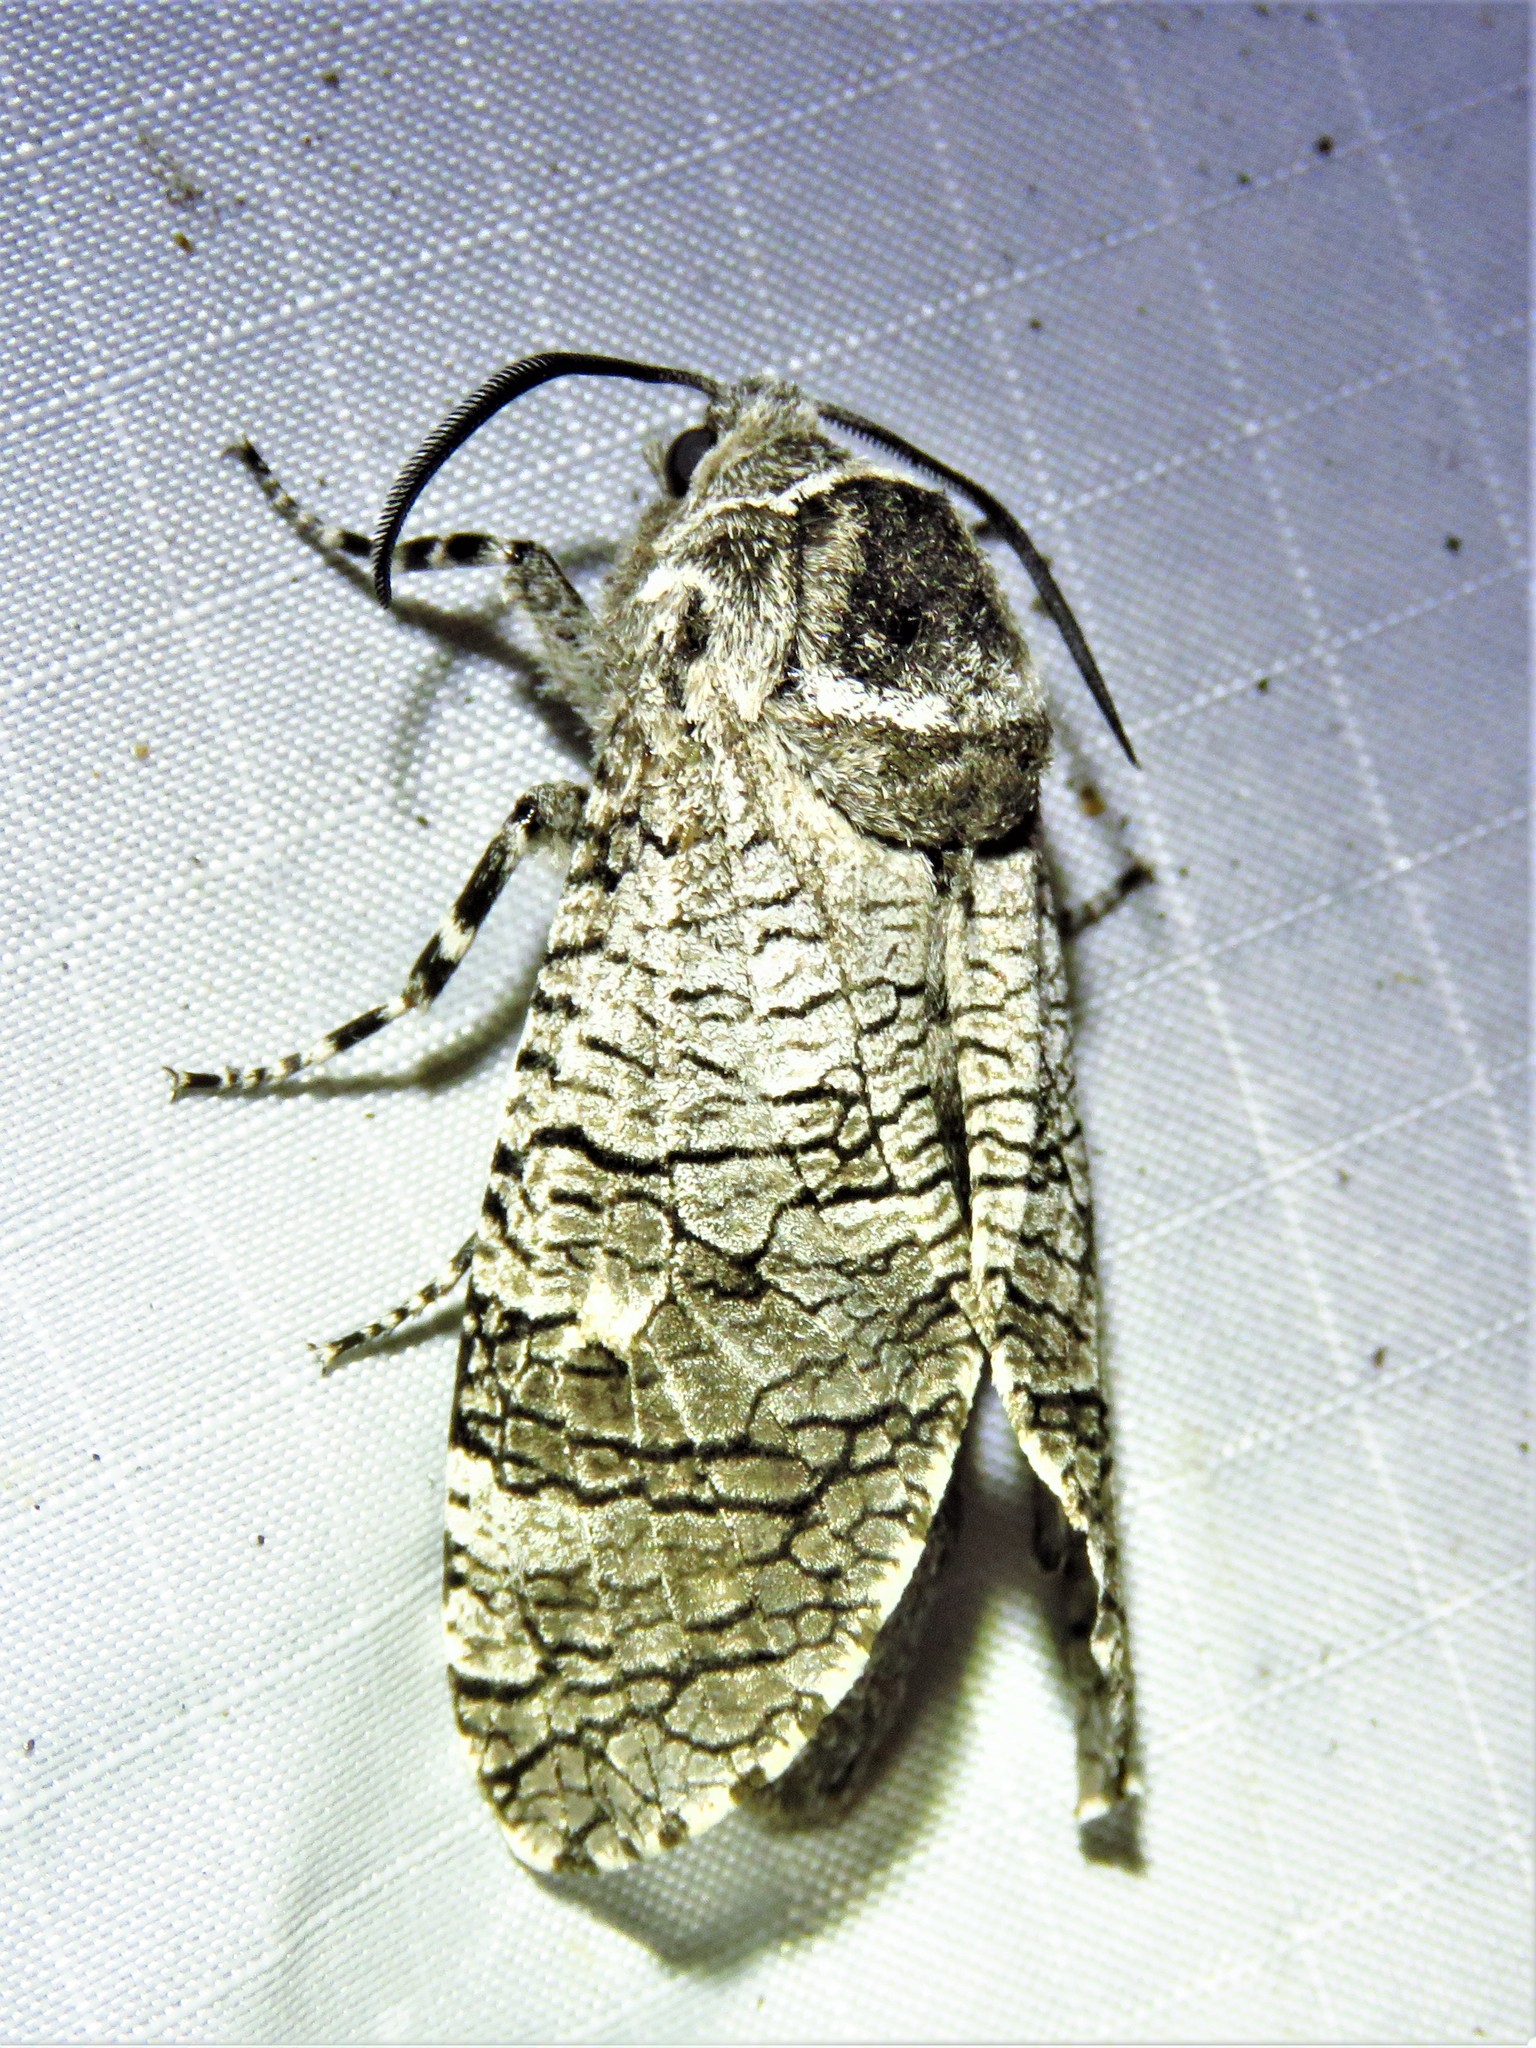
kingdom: Animalia
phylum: Arthropoda
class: Insecta
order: Lepidoptera
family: Cossidae
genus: Prionoxystus
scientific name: Prionoxystus macmurtrei
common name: Little carpenterworm
